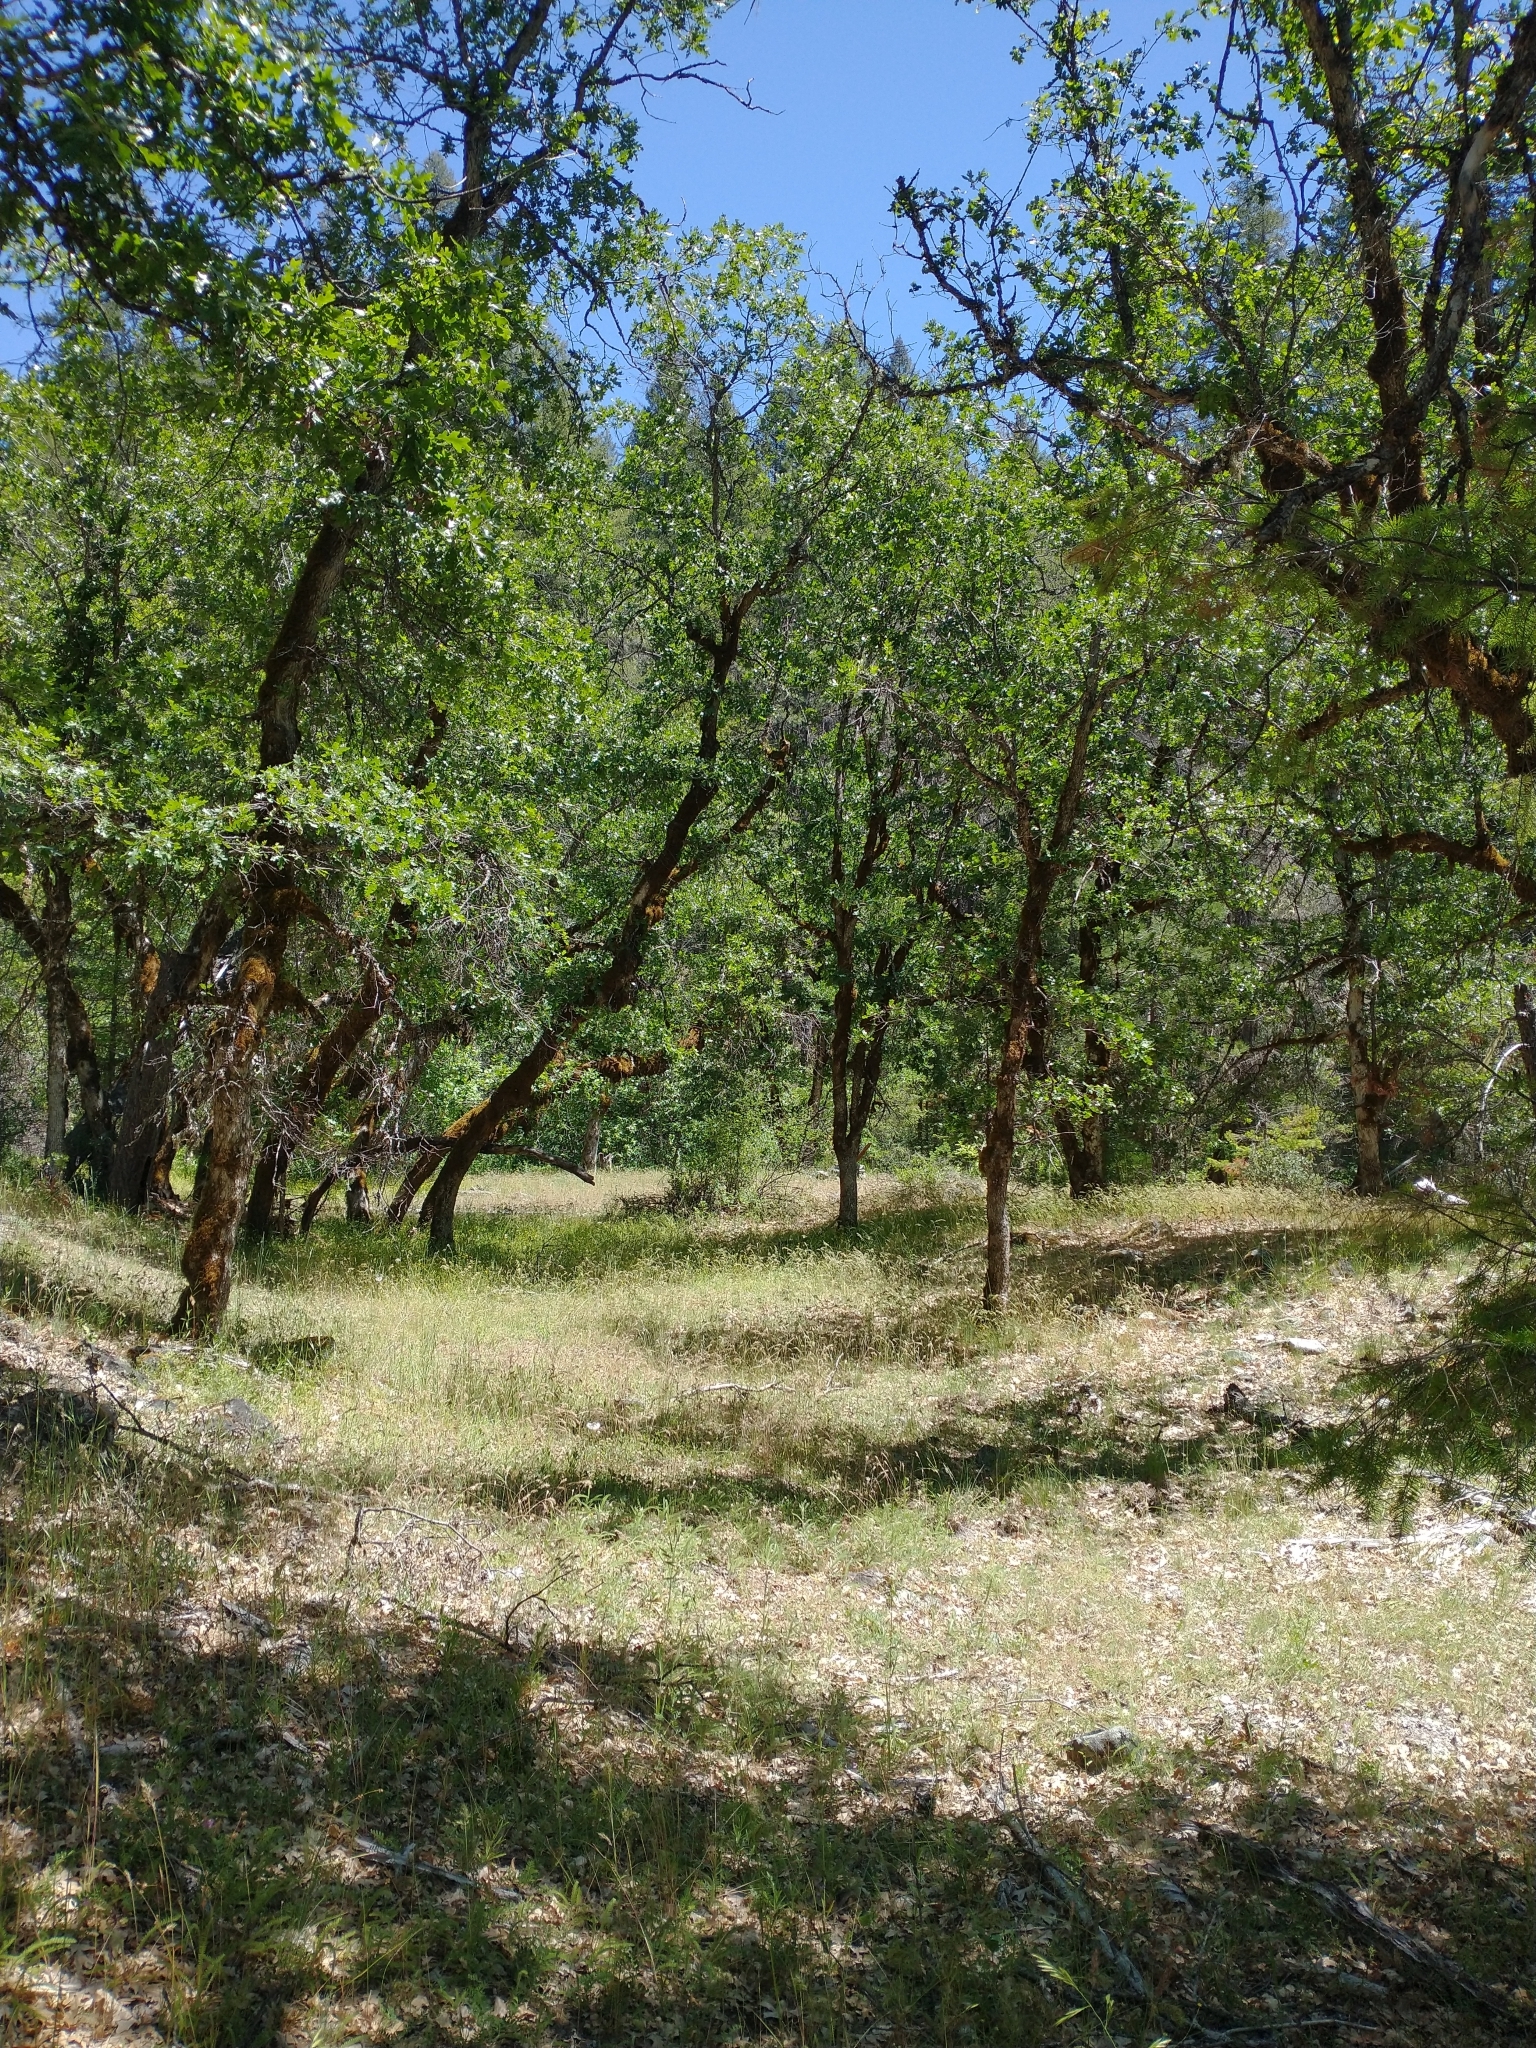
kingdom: Plantae
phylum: Tracheophyta
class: Magnoliopsida
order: Fagales
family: Fagaceae
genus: Quercus
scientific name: Quercus garryana
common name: Garry oak
